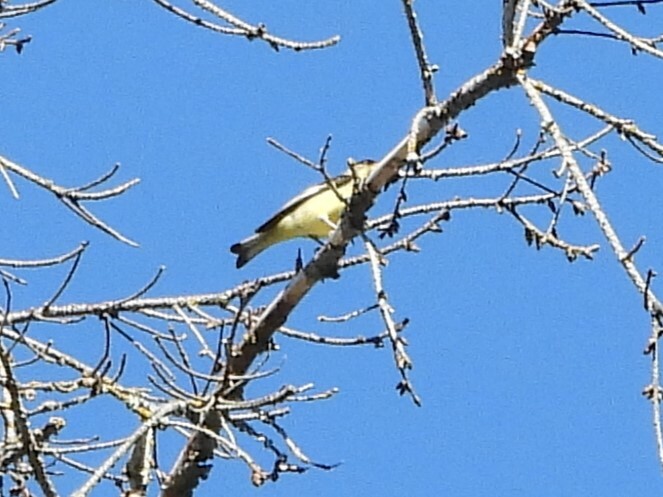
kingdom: Animalia
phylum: Chordata
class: Aves
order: Passeriformes
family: Fringillidae
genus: Spinus
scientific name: Spinus psaltria
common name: Lesser goldfinch
